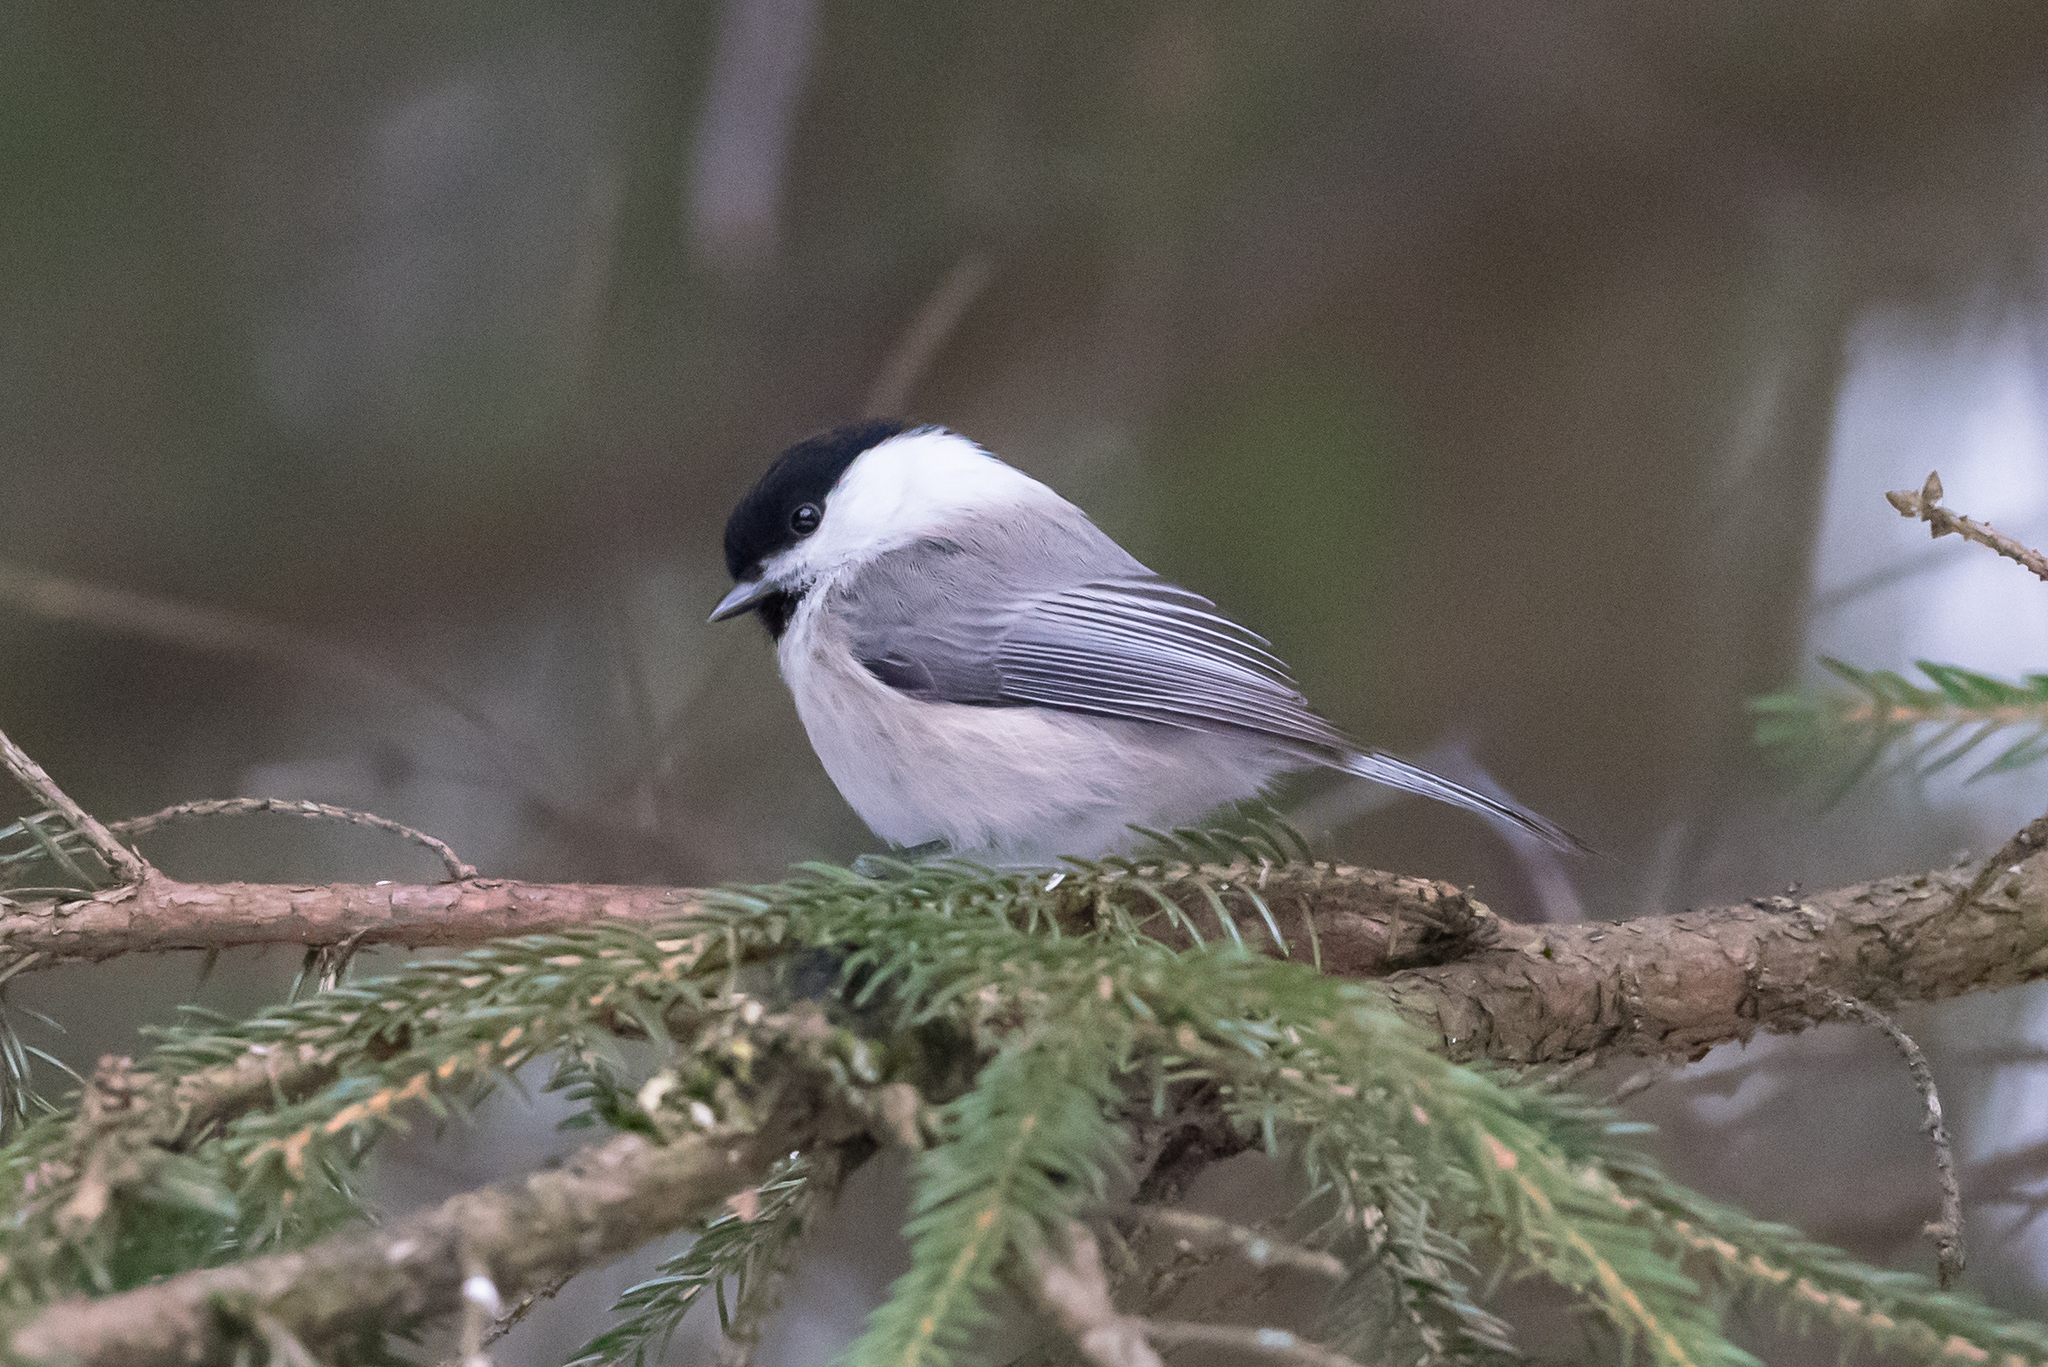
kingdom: Animalia
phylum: Chordata
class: Aves
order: Passeriformes
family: Paridae
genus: Poecile
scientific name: Poecile montanus
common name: Willow tit
